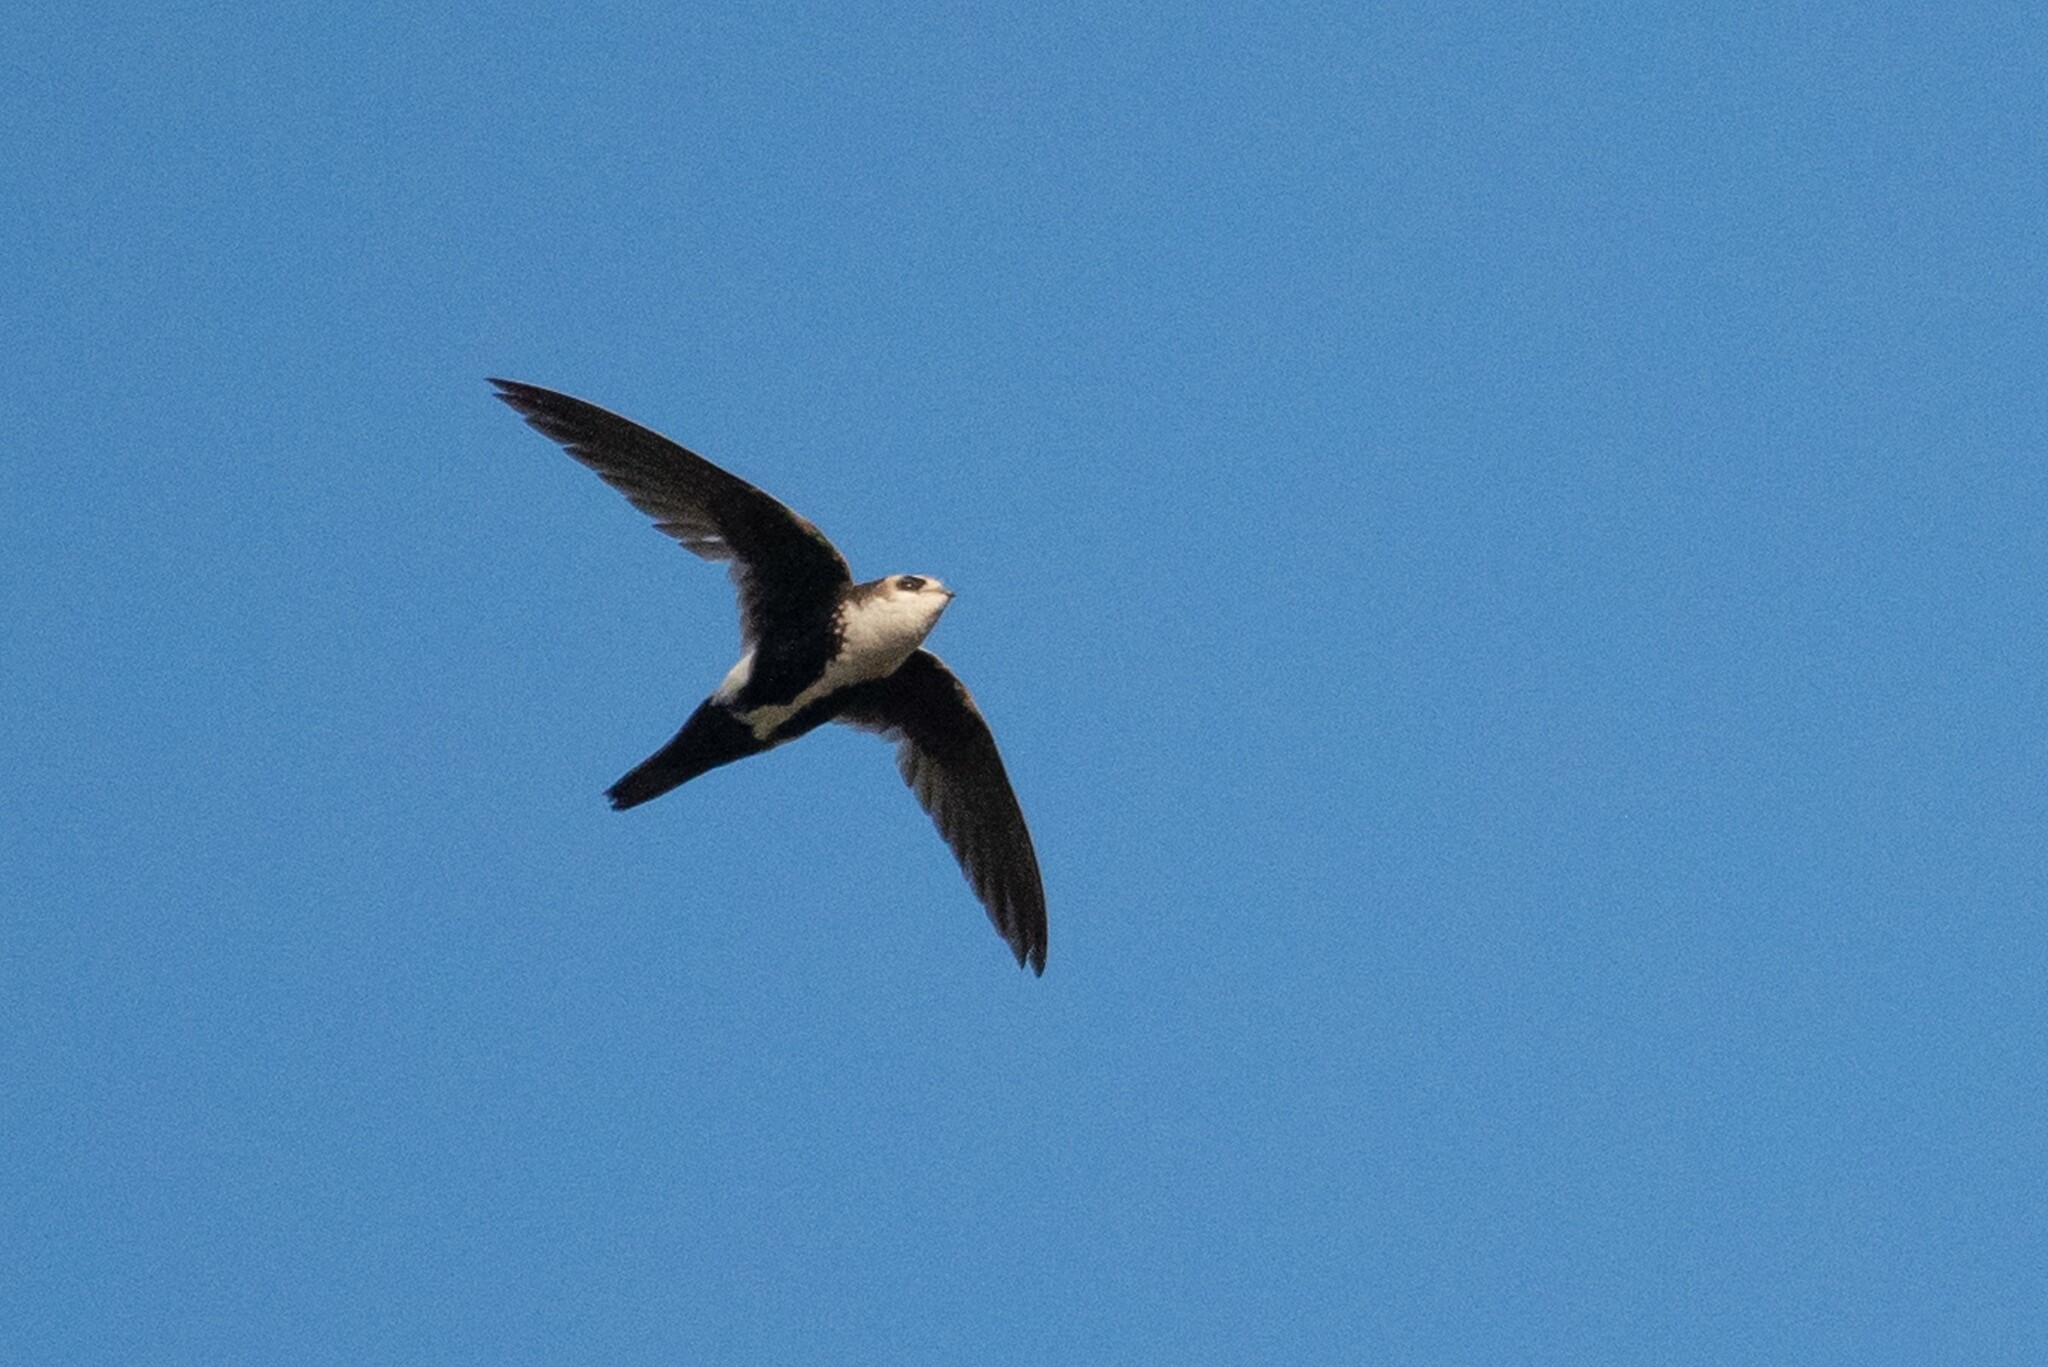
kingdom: Animalia
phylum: Chordata
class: Aves
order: Apodiformes
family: Apodidae
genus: Aeronautes
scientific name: Aeronautes saxatalis
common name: White-throated swift
